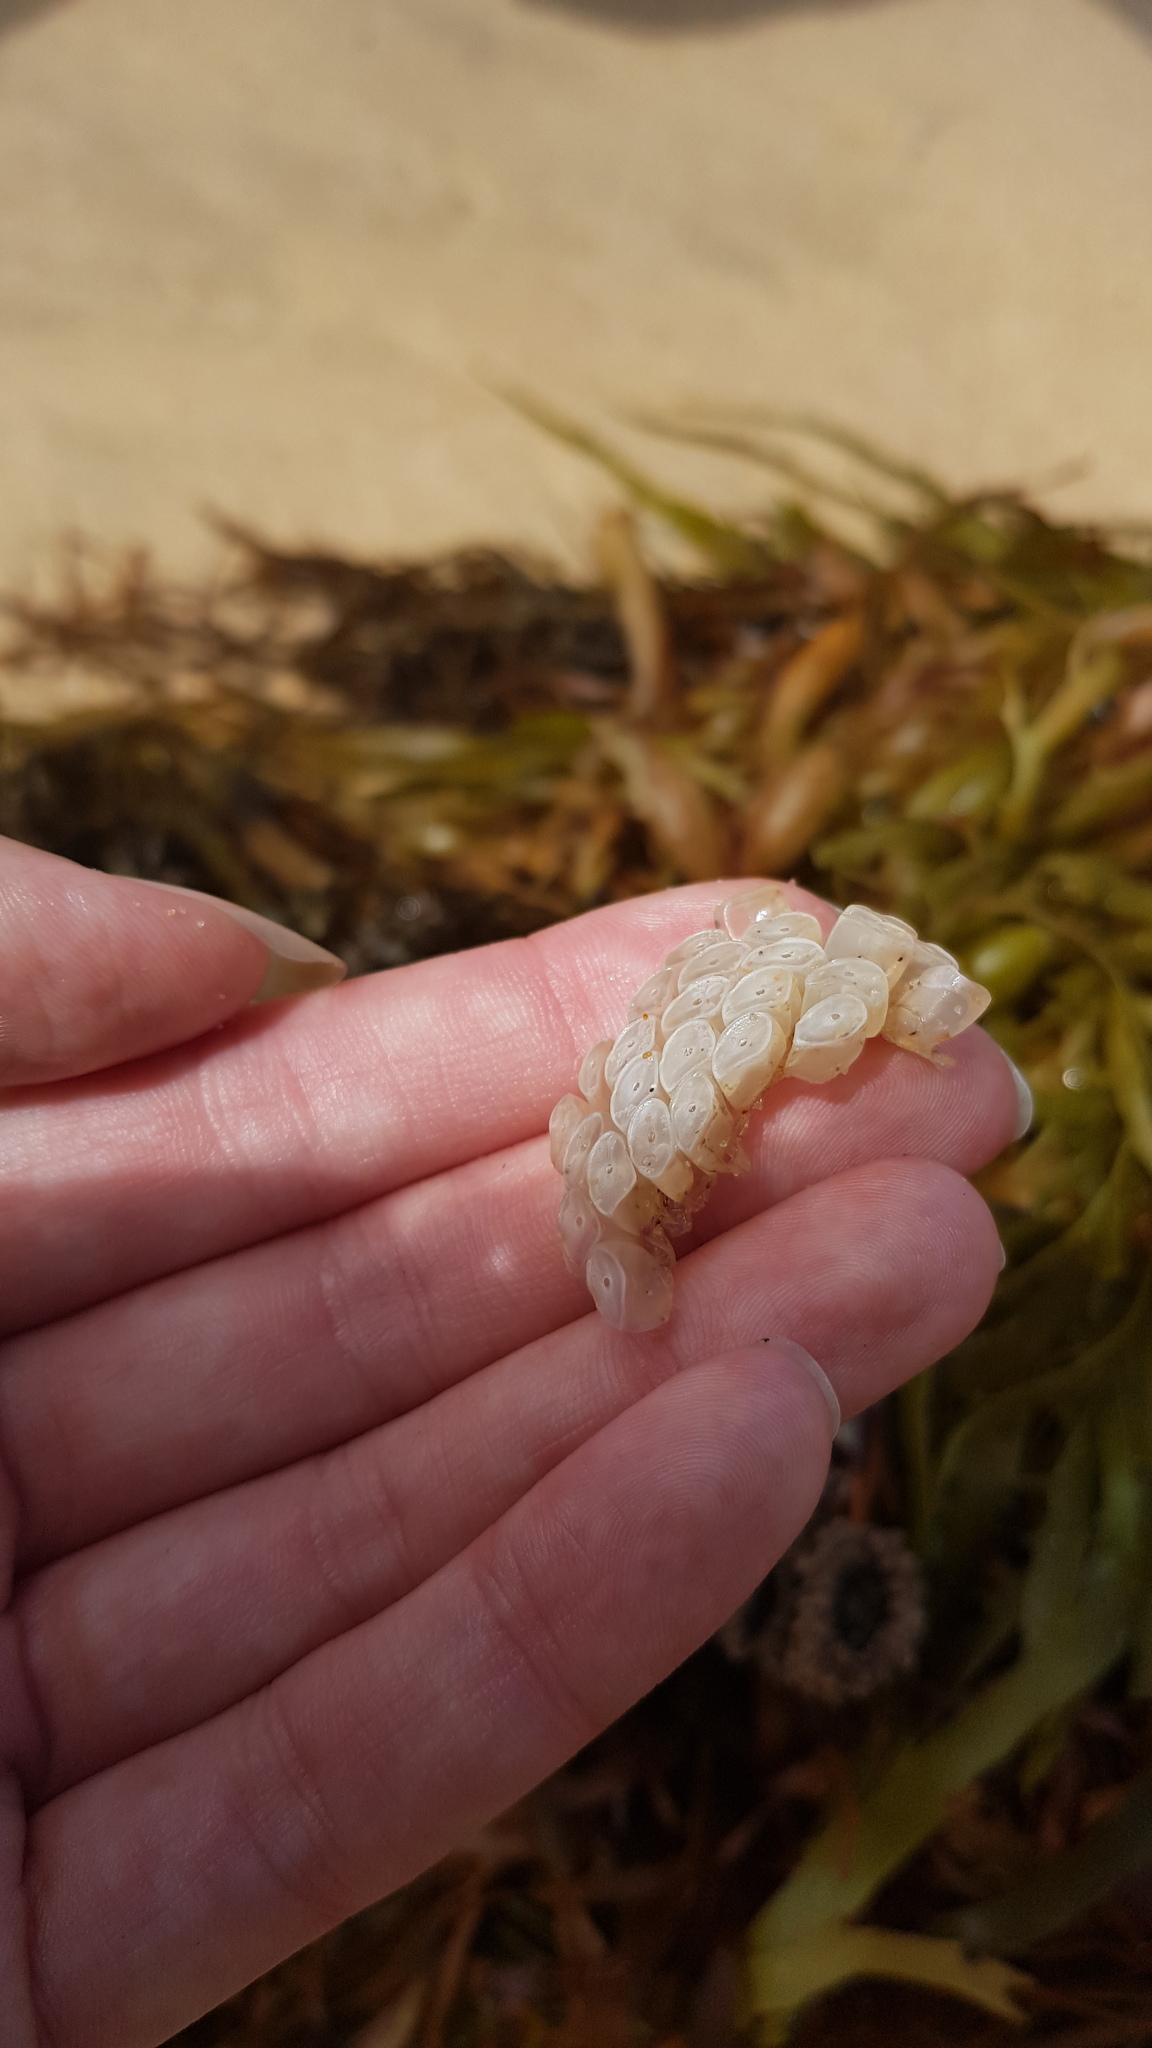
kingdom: Animalia
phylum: Mollusca
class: Gastropoda
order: Neogastropoda
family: Muricidae
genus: Dicathais
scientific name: Dicathais orbita
